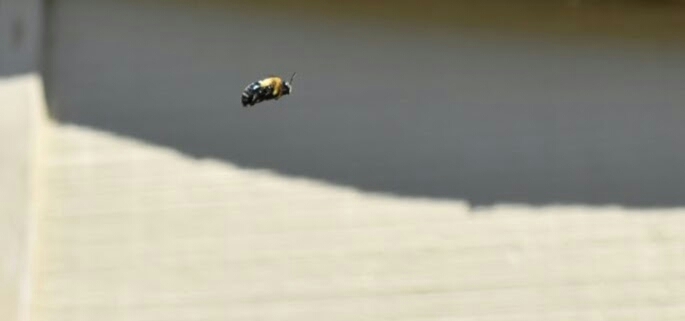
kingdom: Animalia
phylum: Arthropoda
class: Insecta
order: Hymenoptera
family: Apidae
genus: Xylocopa
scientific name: Xylocopa virginica
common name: Carpenter bee
